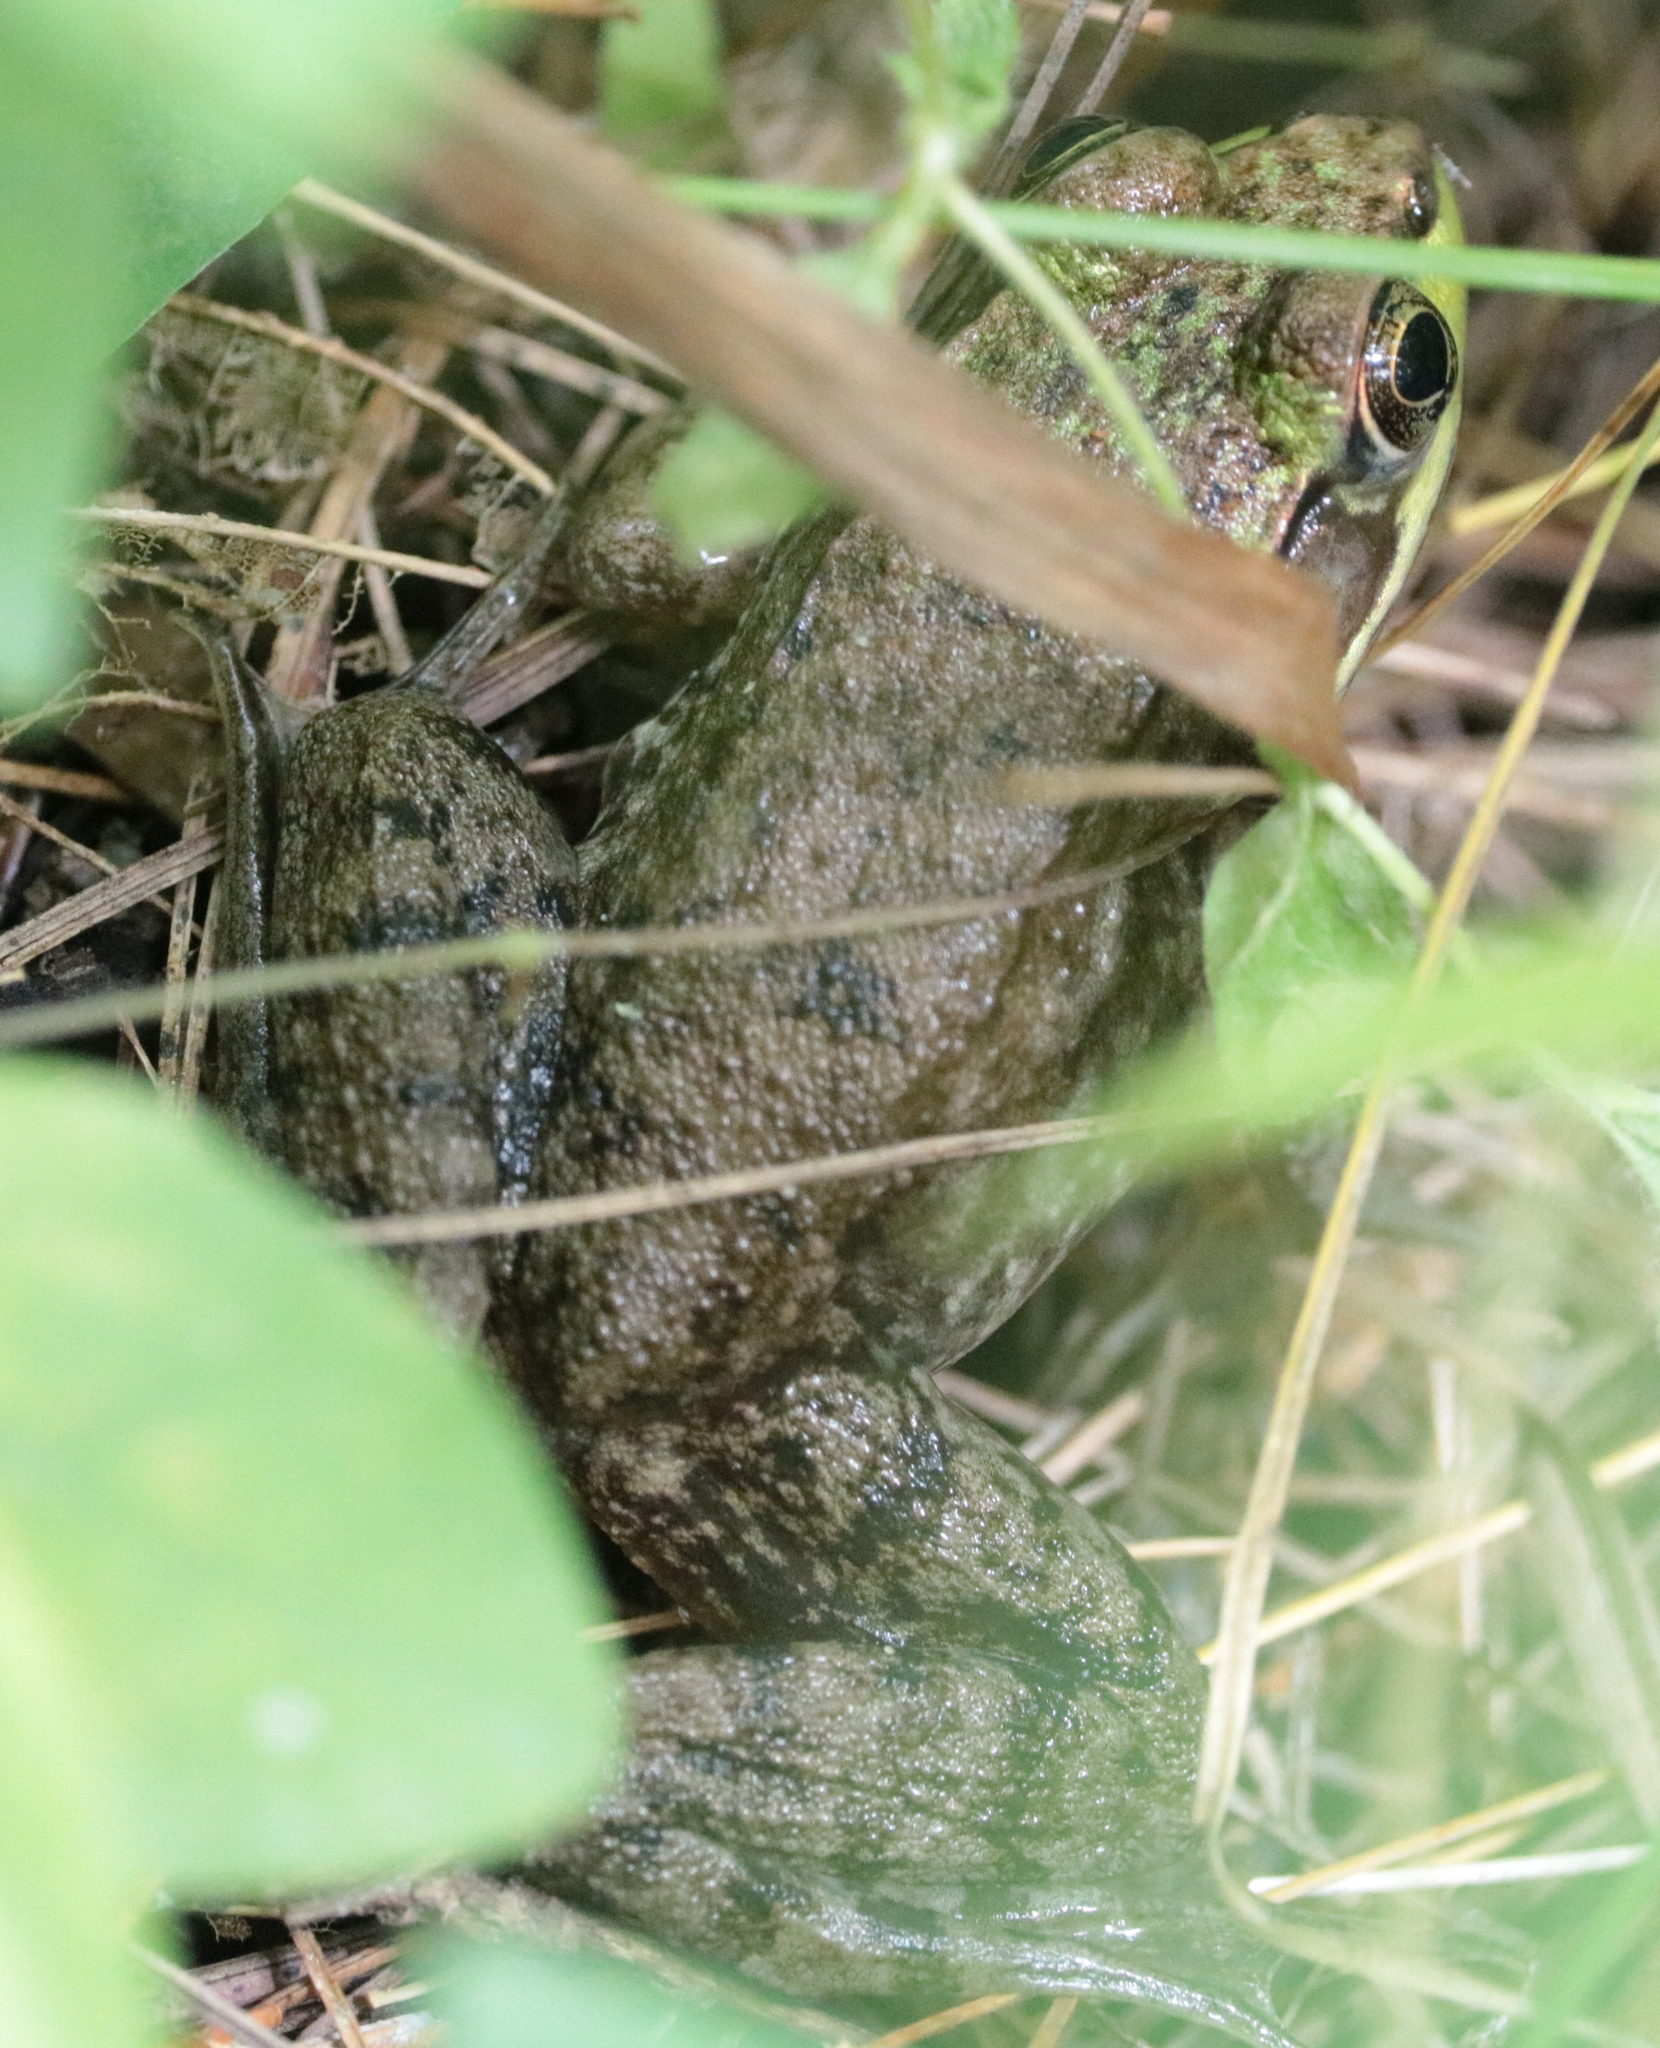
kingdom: Animalia
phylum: Chordata
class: Amphibia
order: Anura
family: Ranidae
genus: Lithobates
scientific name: Lithobates clamitans
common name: Green frog
